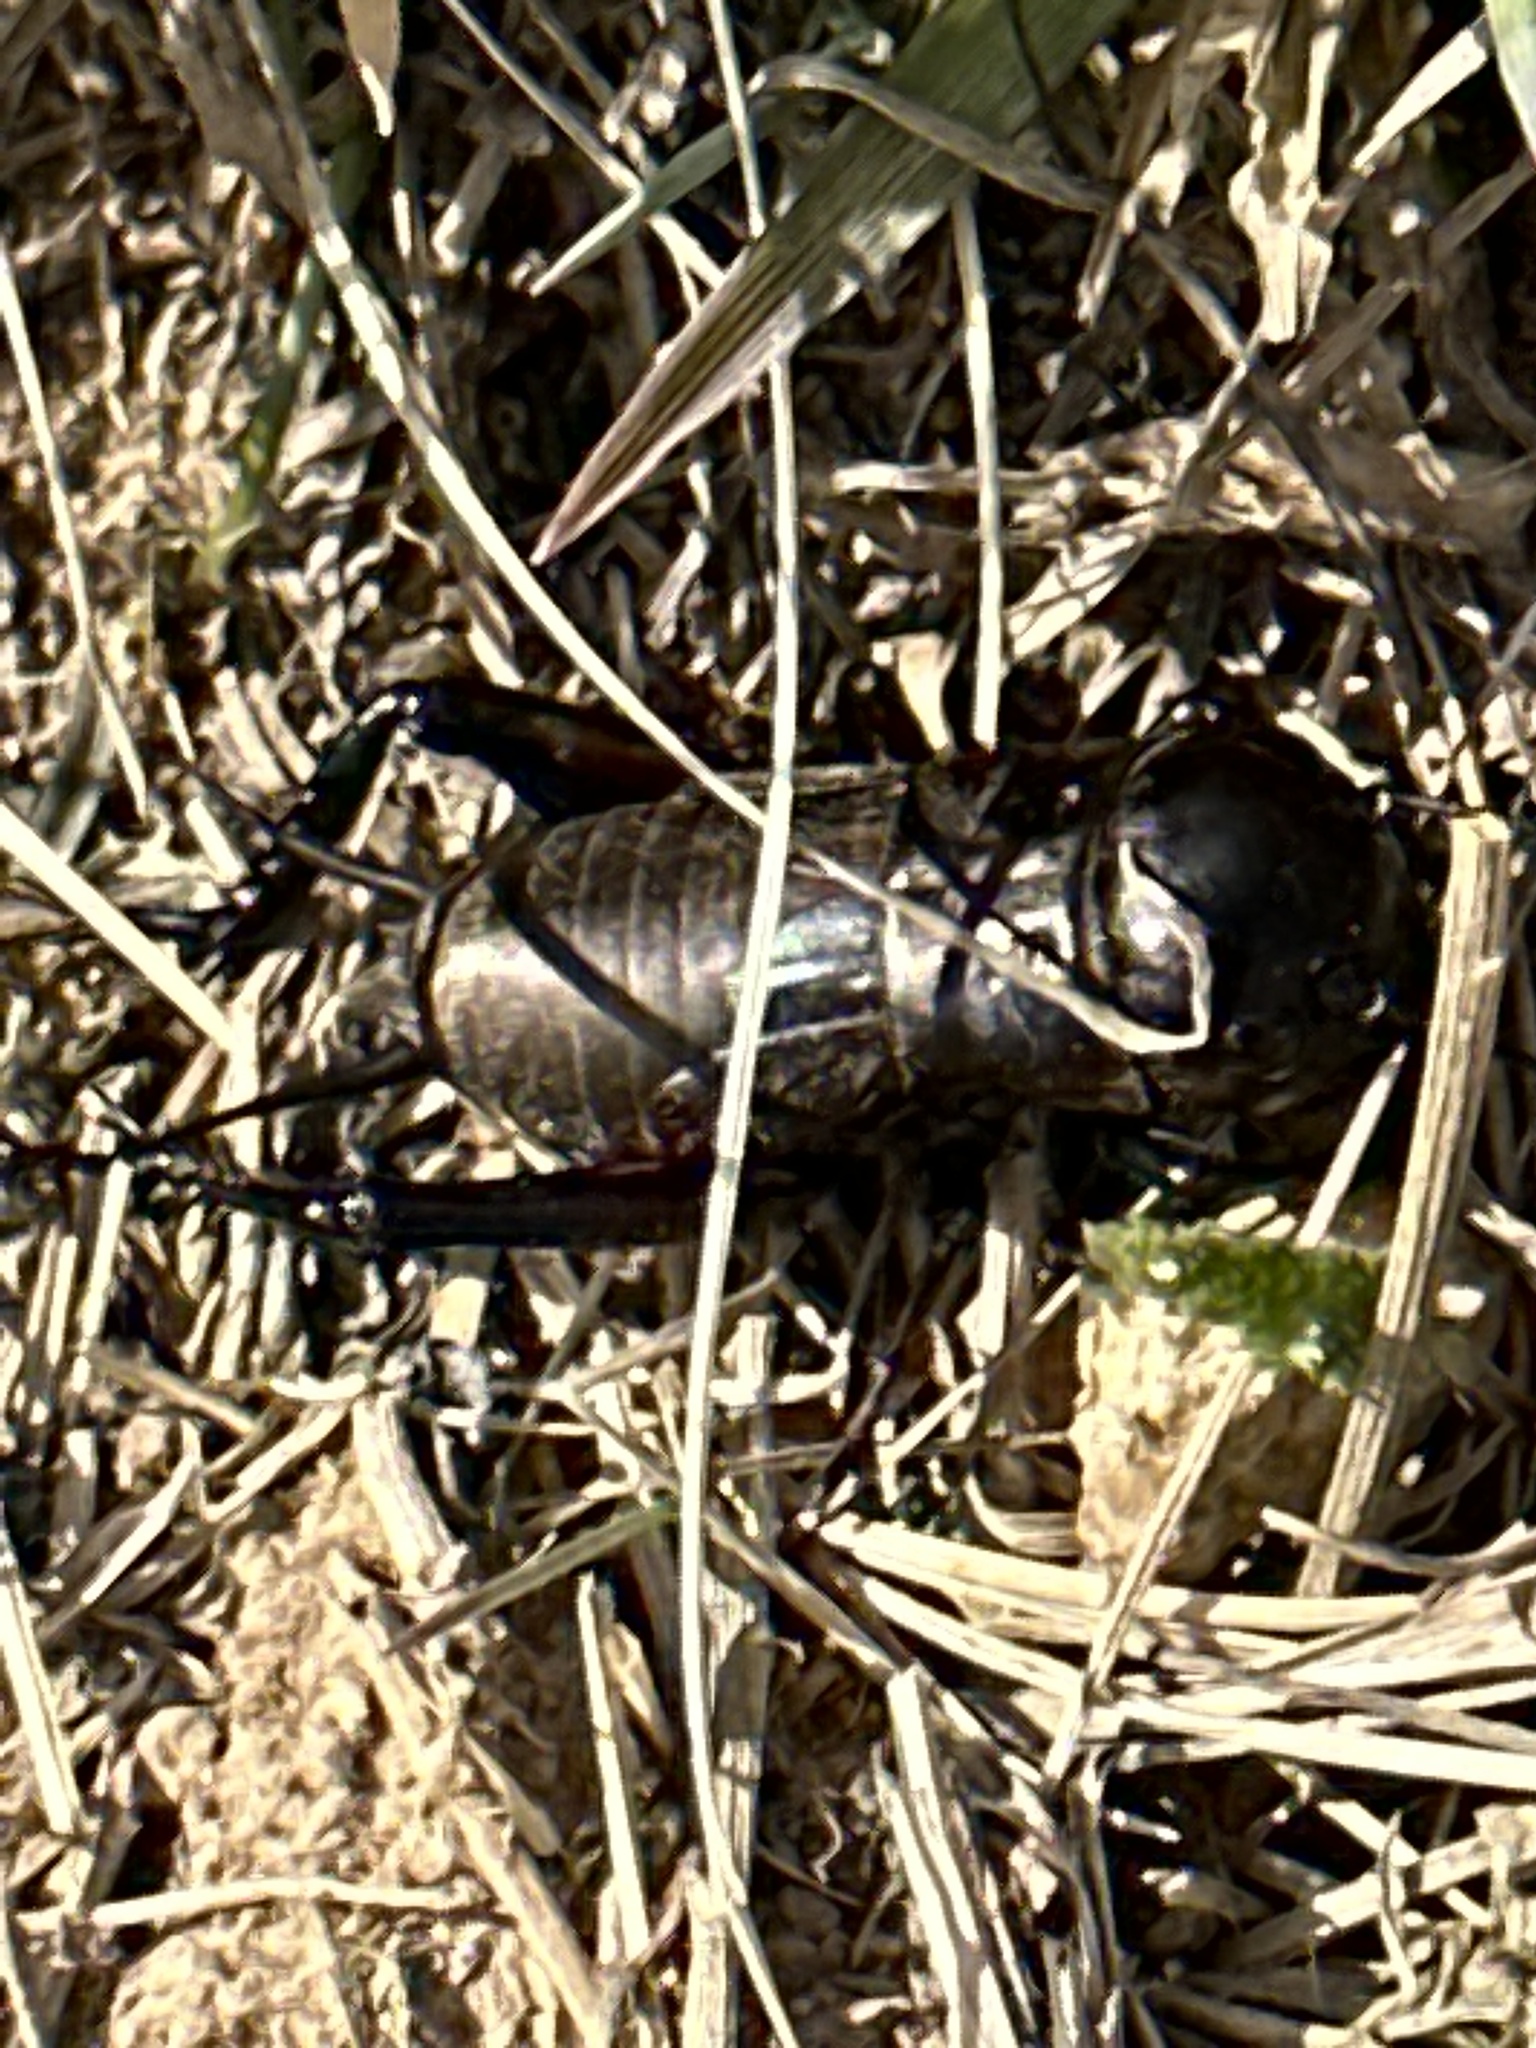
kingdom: Animalia
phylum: Arthropoda
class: Insecta
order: Orthoptera
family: Gryllidae
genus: Gryllus
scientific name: Gryllus campestris
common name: Field cricket
